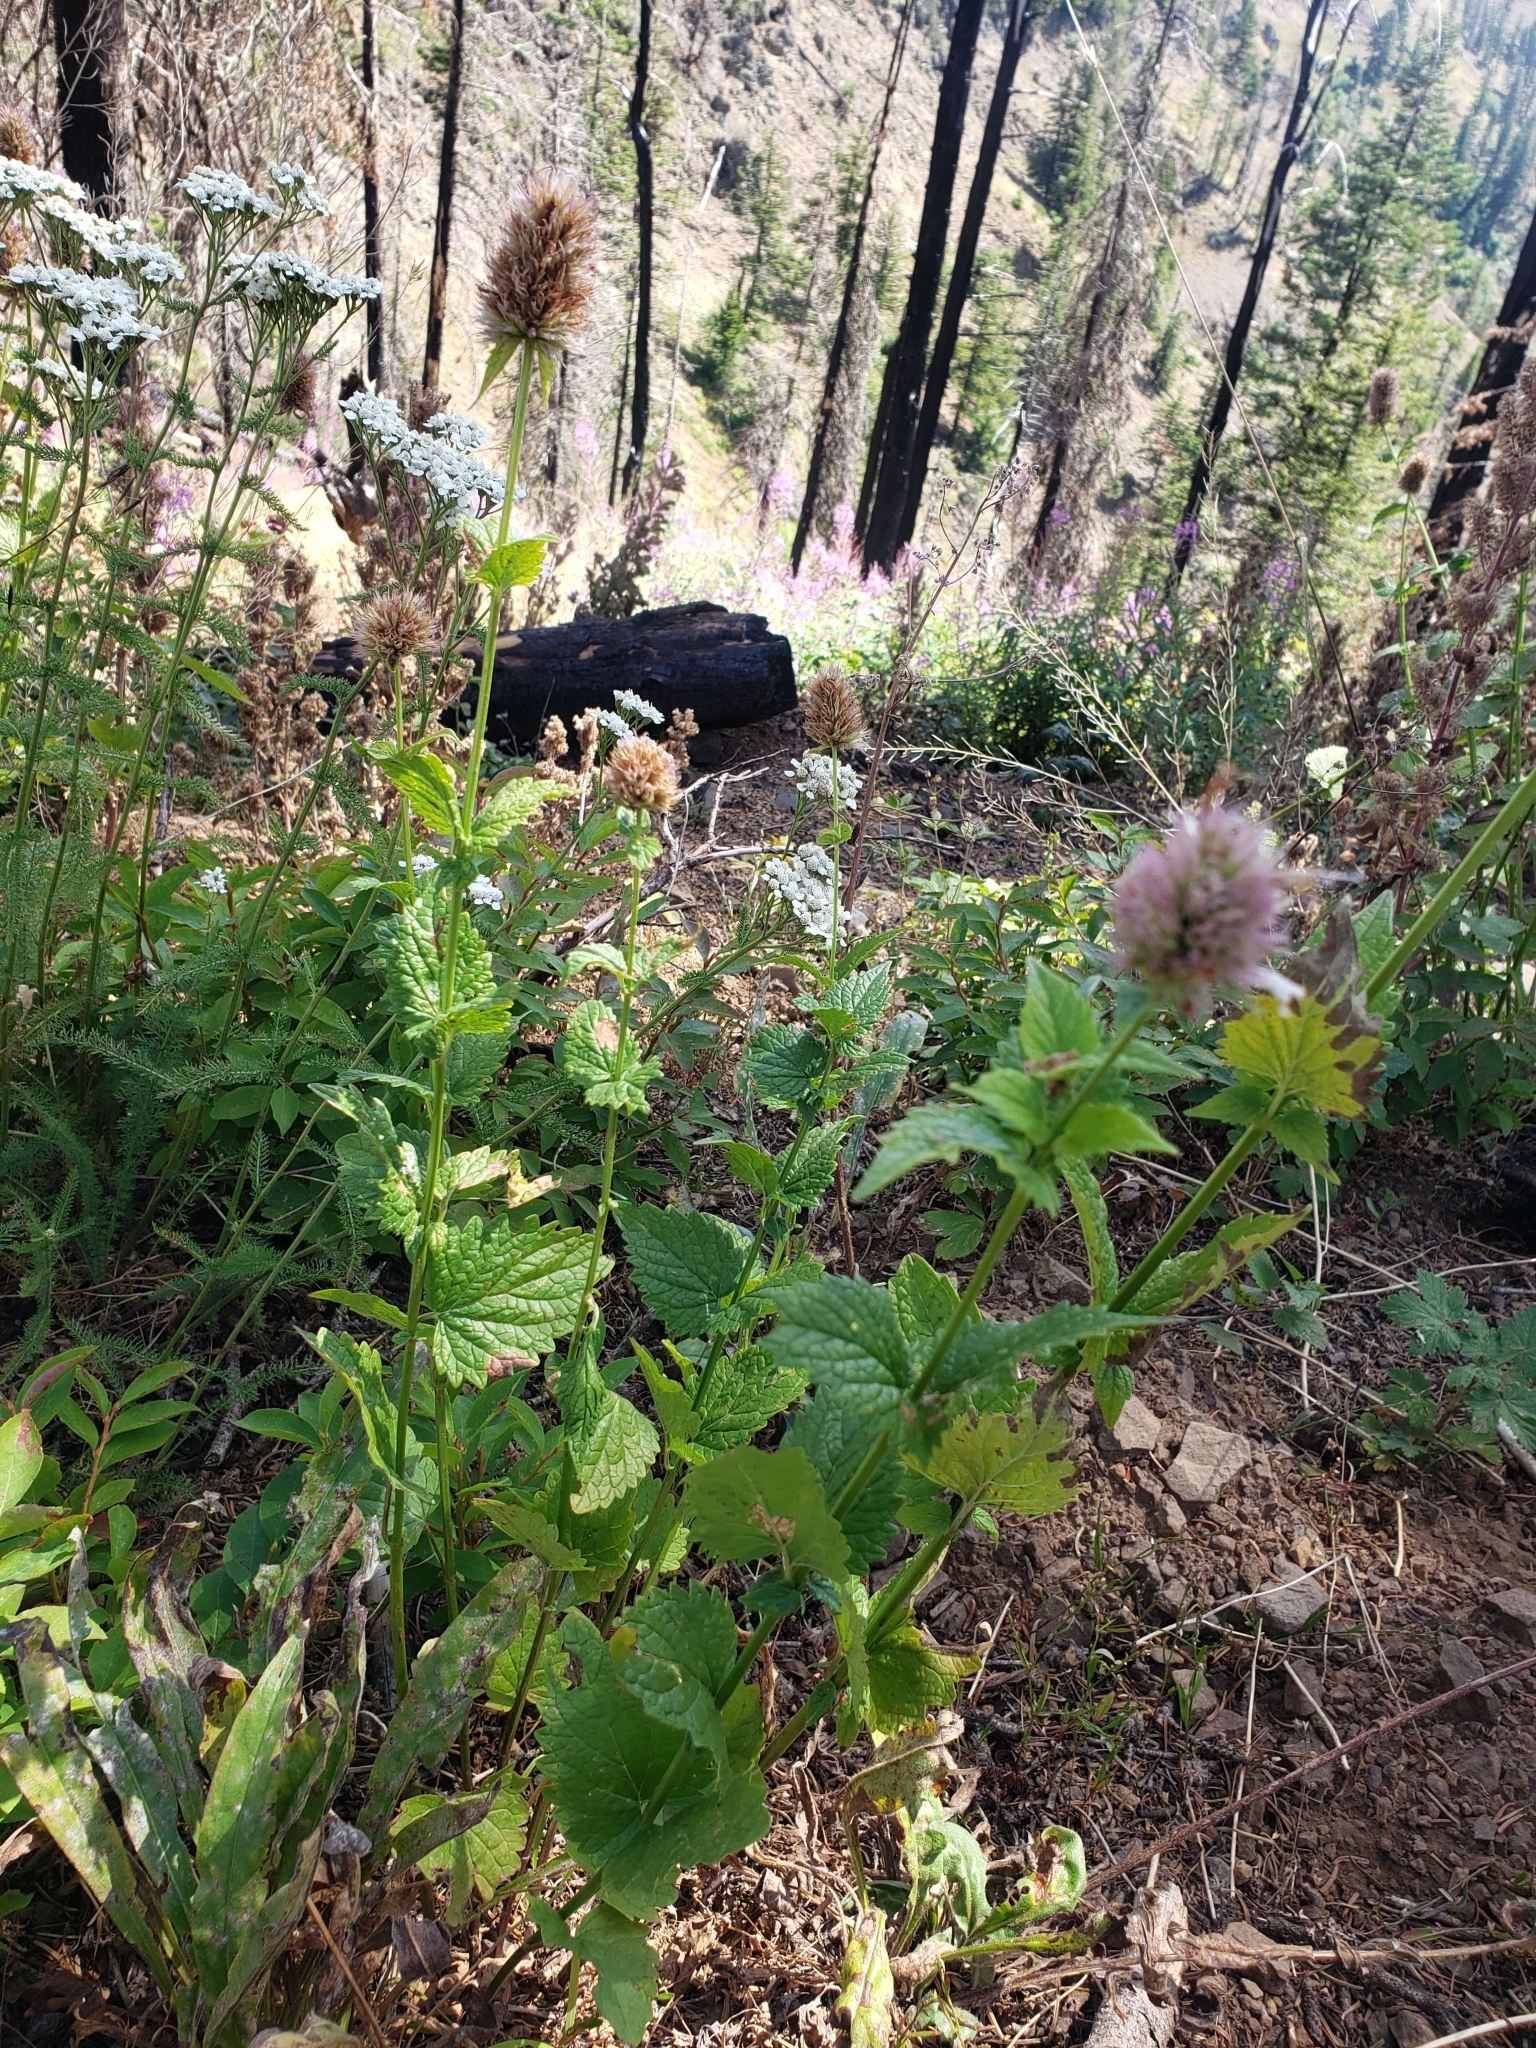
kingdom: Plantae
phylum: Tracheophyta
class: Magnoliopsida
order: Lamiales
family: Lamiaceae
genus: Agastache
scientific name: Agastache urticifolia
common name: Horsemint giant hyssop
